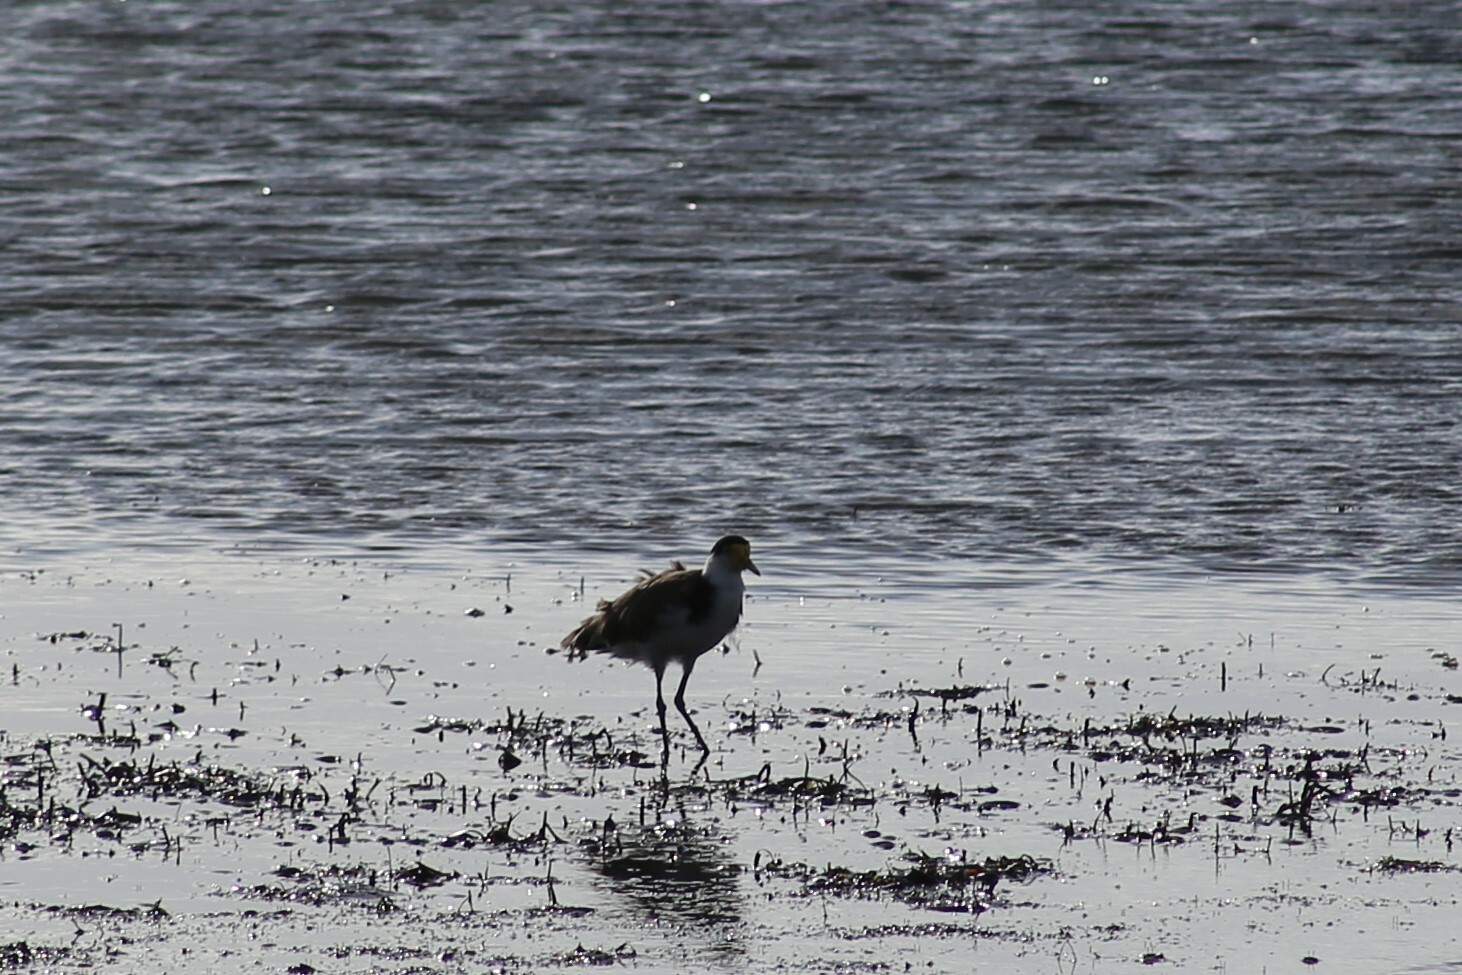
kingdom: Animalia
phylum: Chordata
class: Aves
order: Charadriiformes
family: Charadriidae
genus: Vanellus
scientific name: Vanellus miles
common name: Masked lapwing
